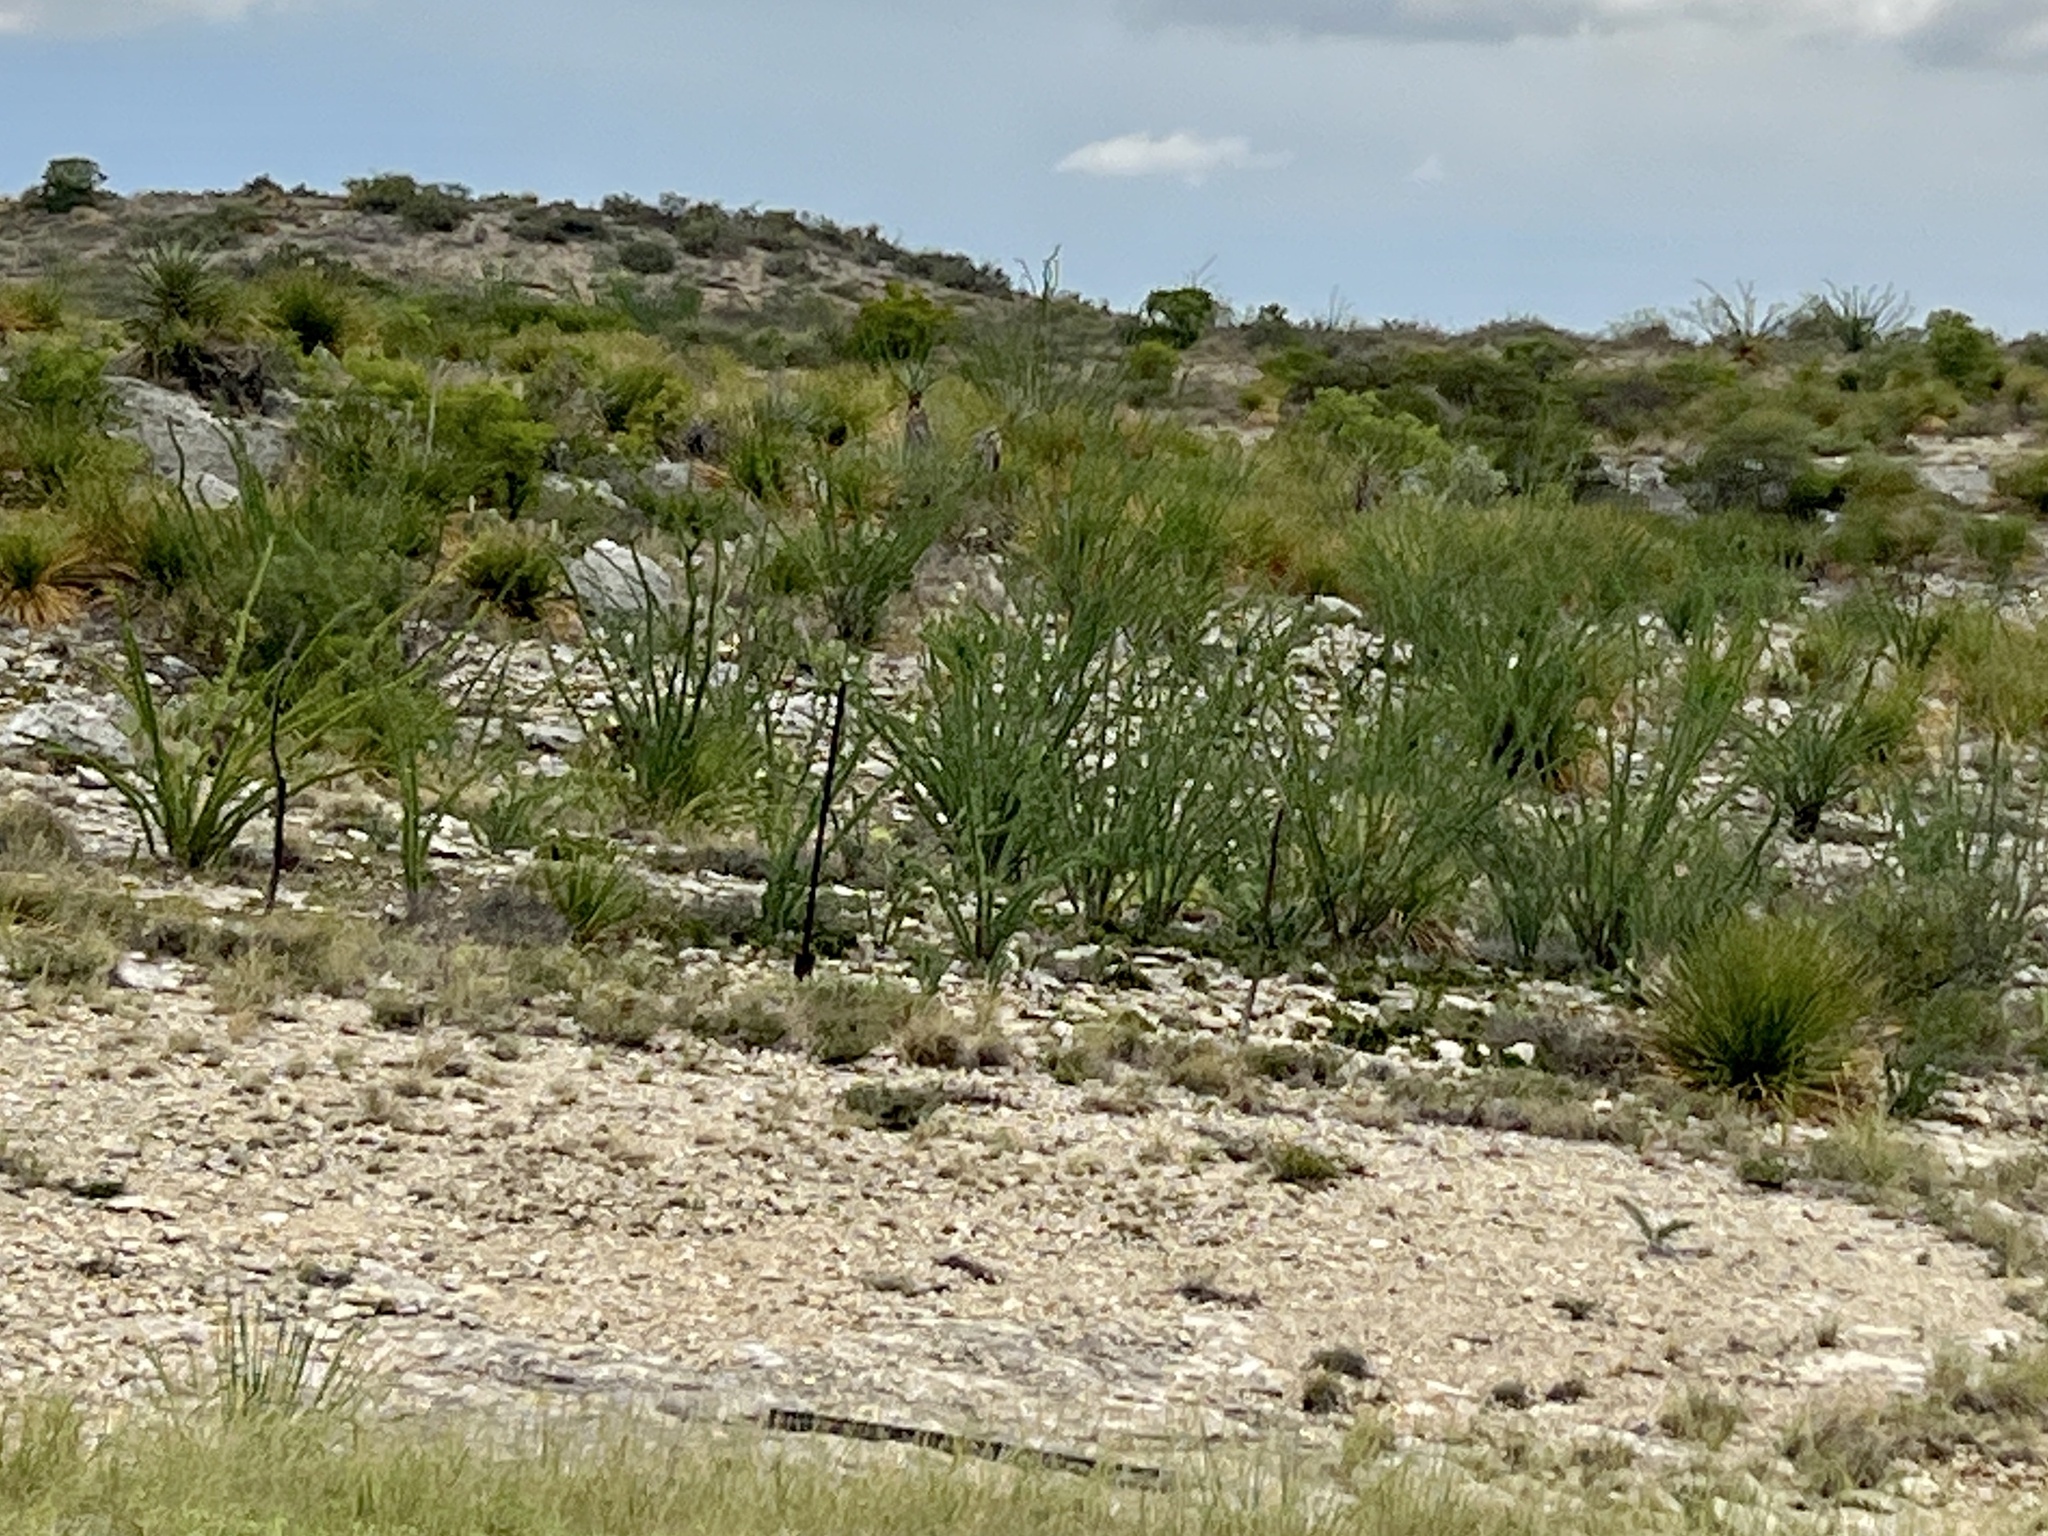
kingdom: Plantae
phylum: Tracheophyta
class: Magnoliopsida
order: Ericales
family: Fouquieriaceae
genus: Fouquieria
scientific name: Fouquieria splendens
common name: Vine-cactus
